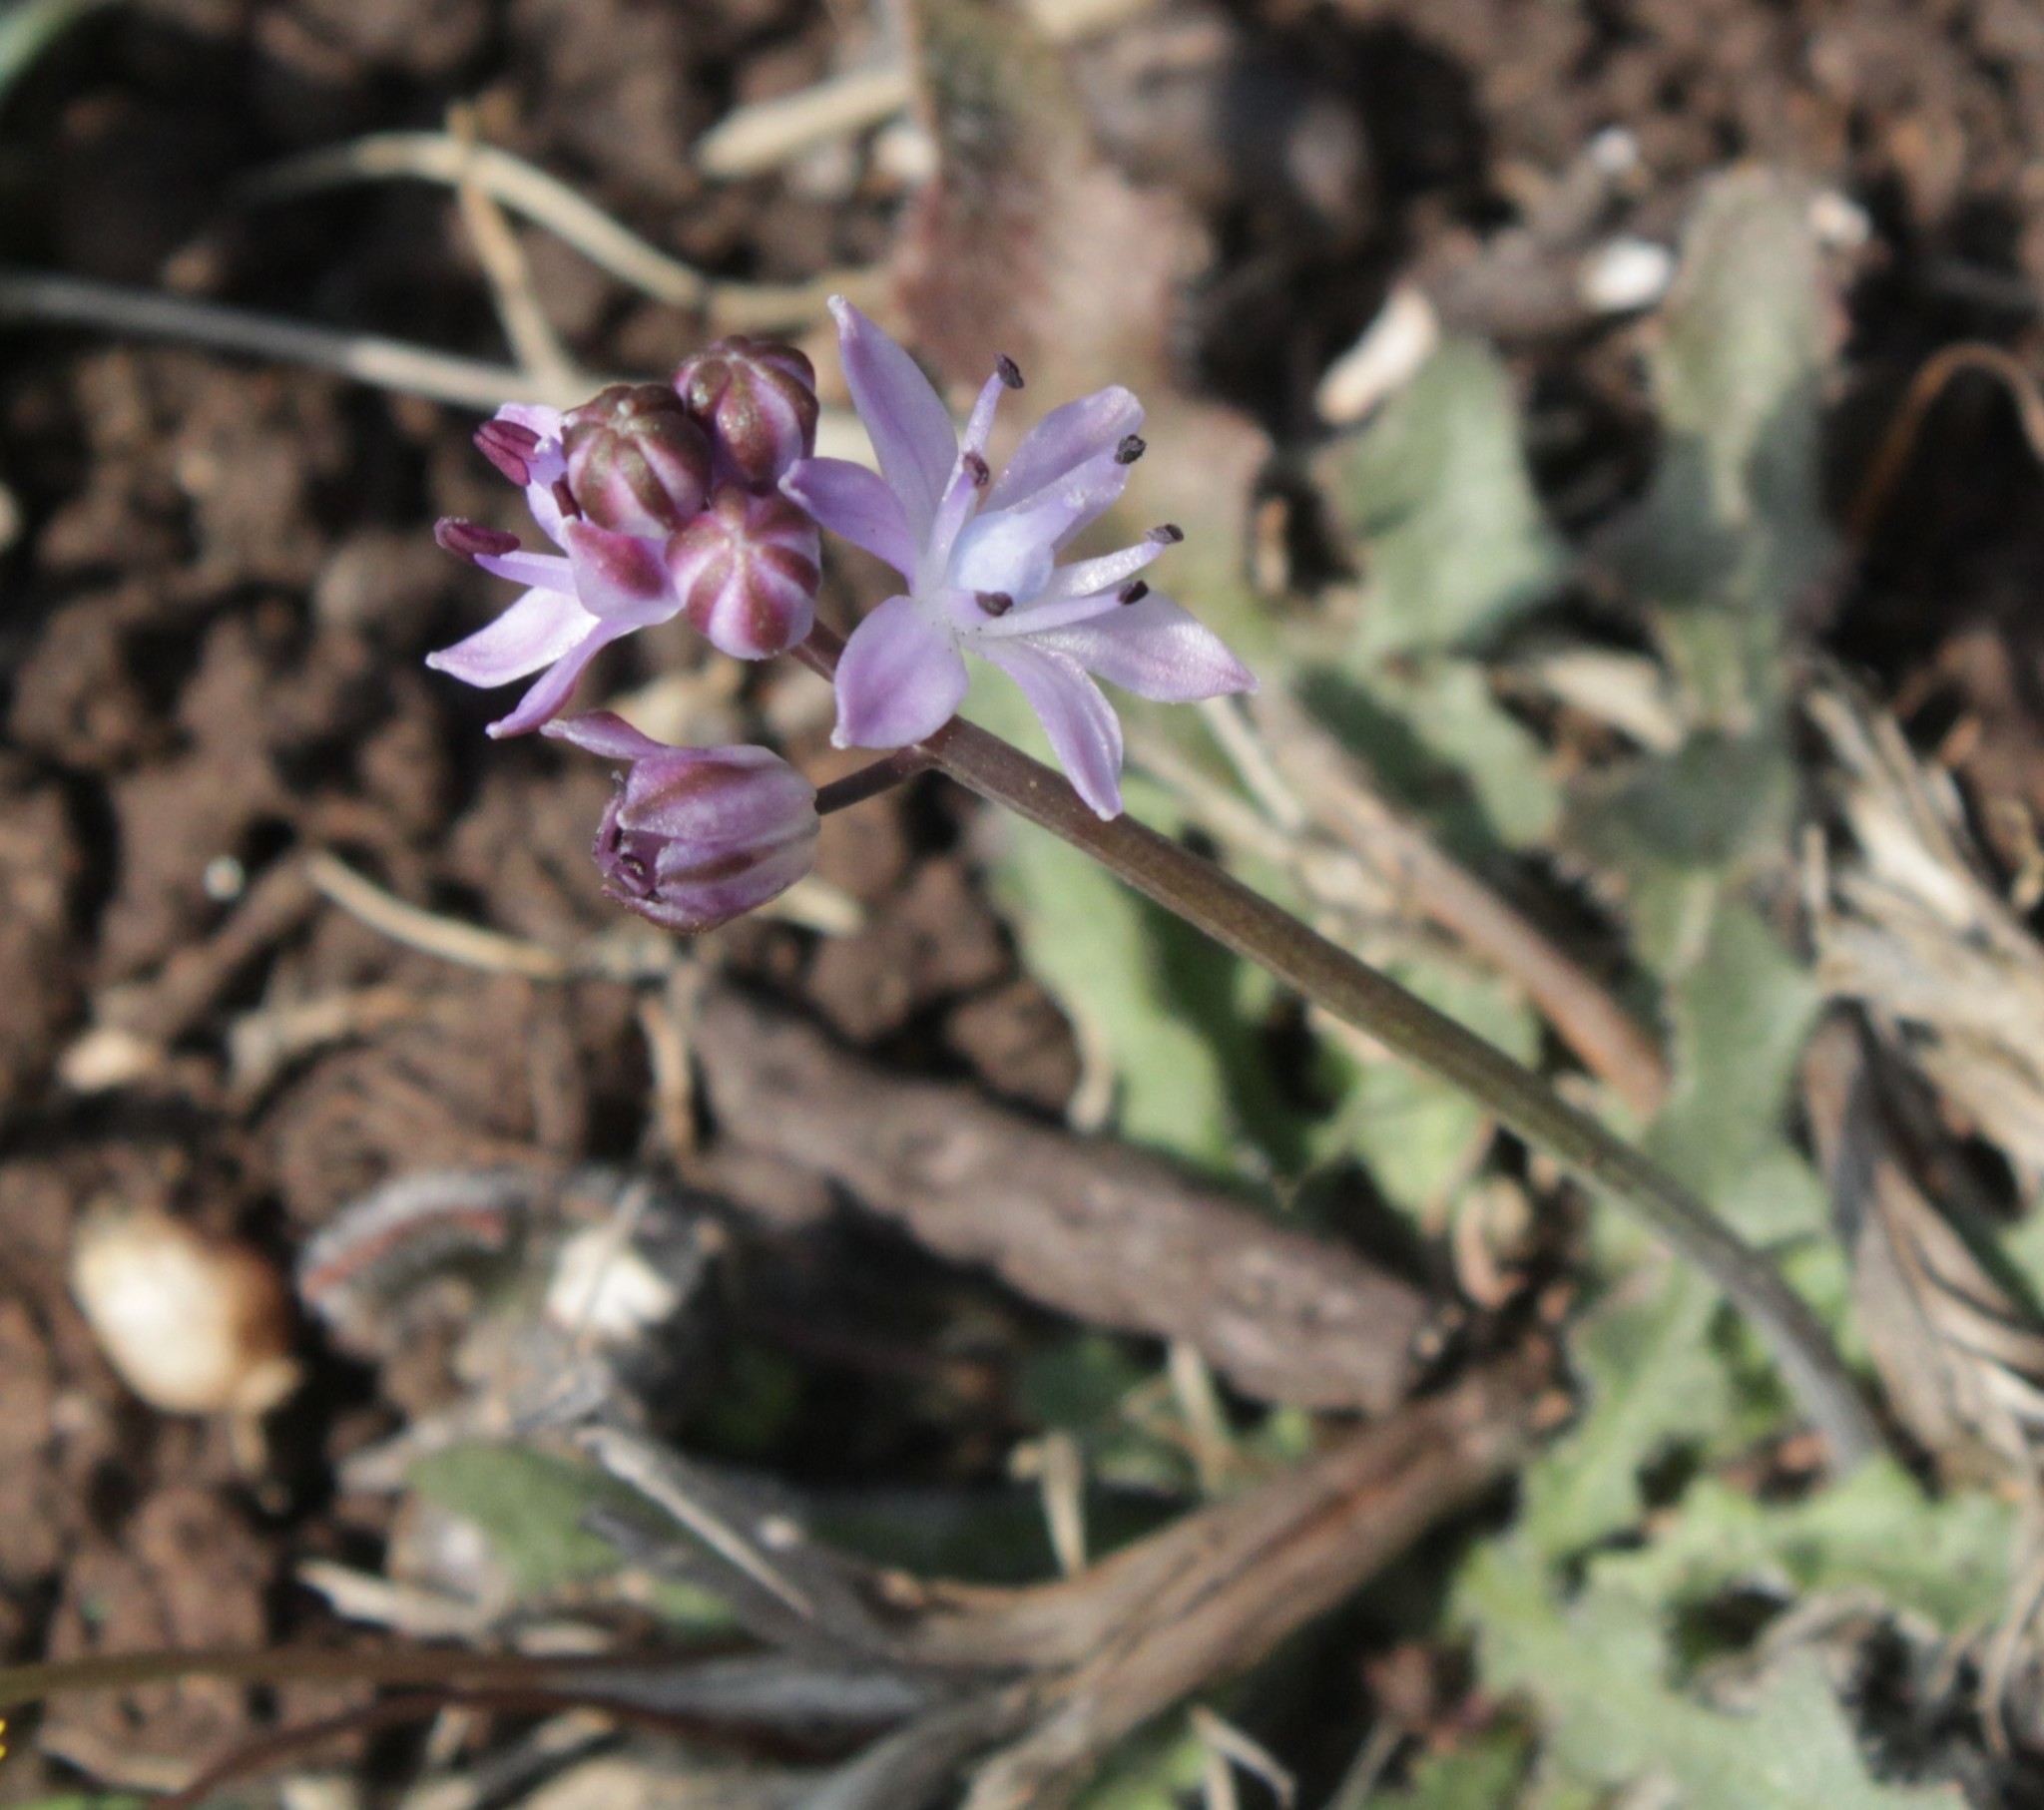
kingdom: Plantae
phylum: Tracheophyta
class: Liliopsida
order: Asparagales
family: Asparagaceae
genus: Prospero
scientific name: Prospero autumnale
